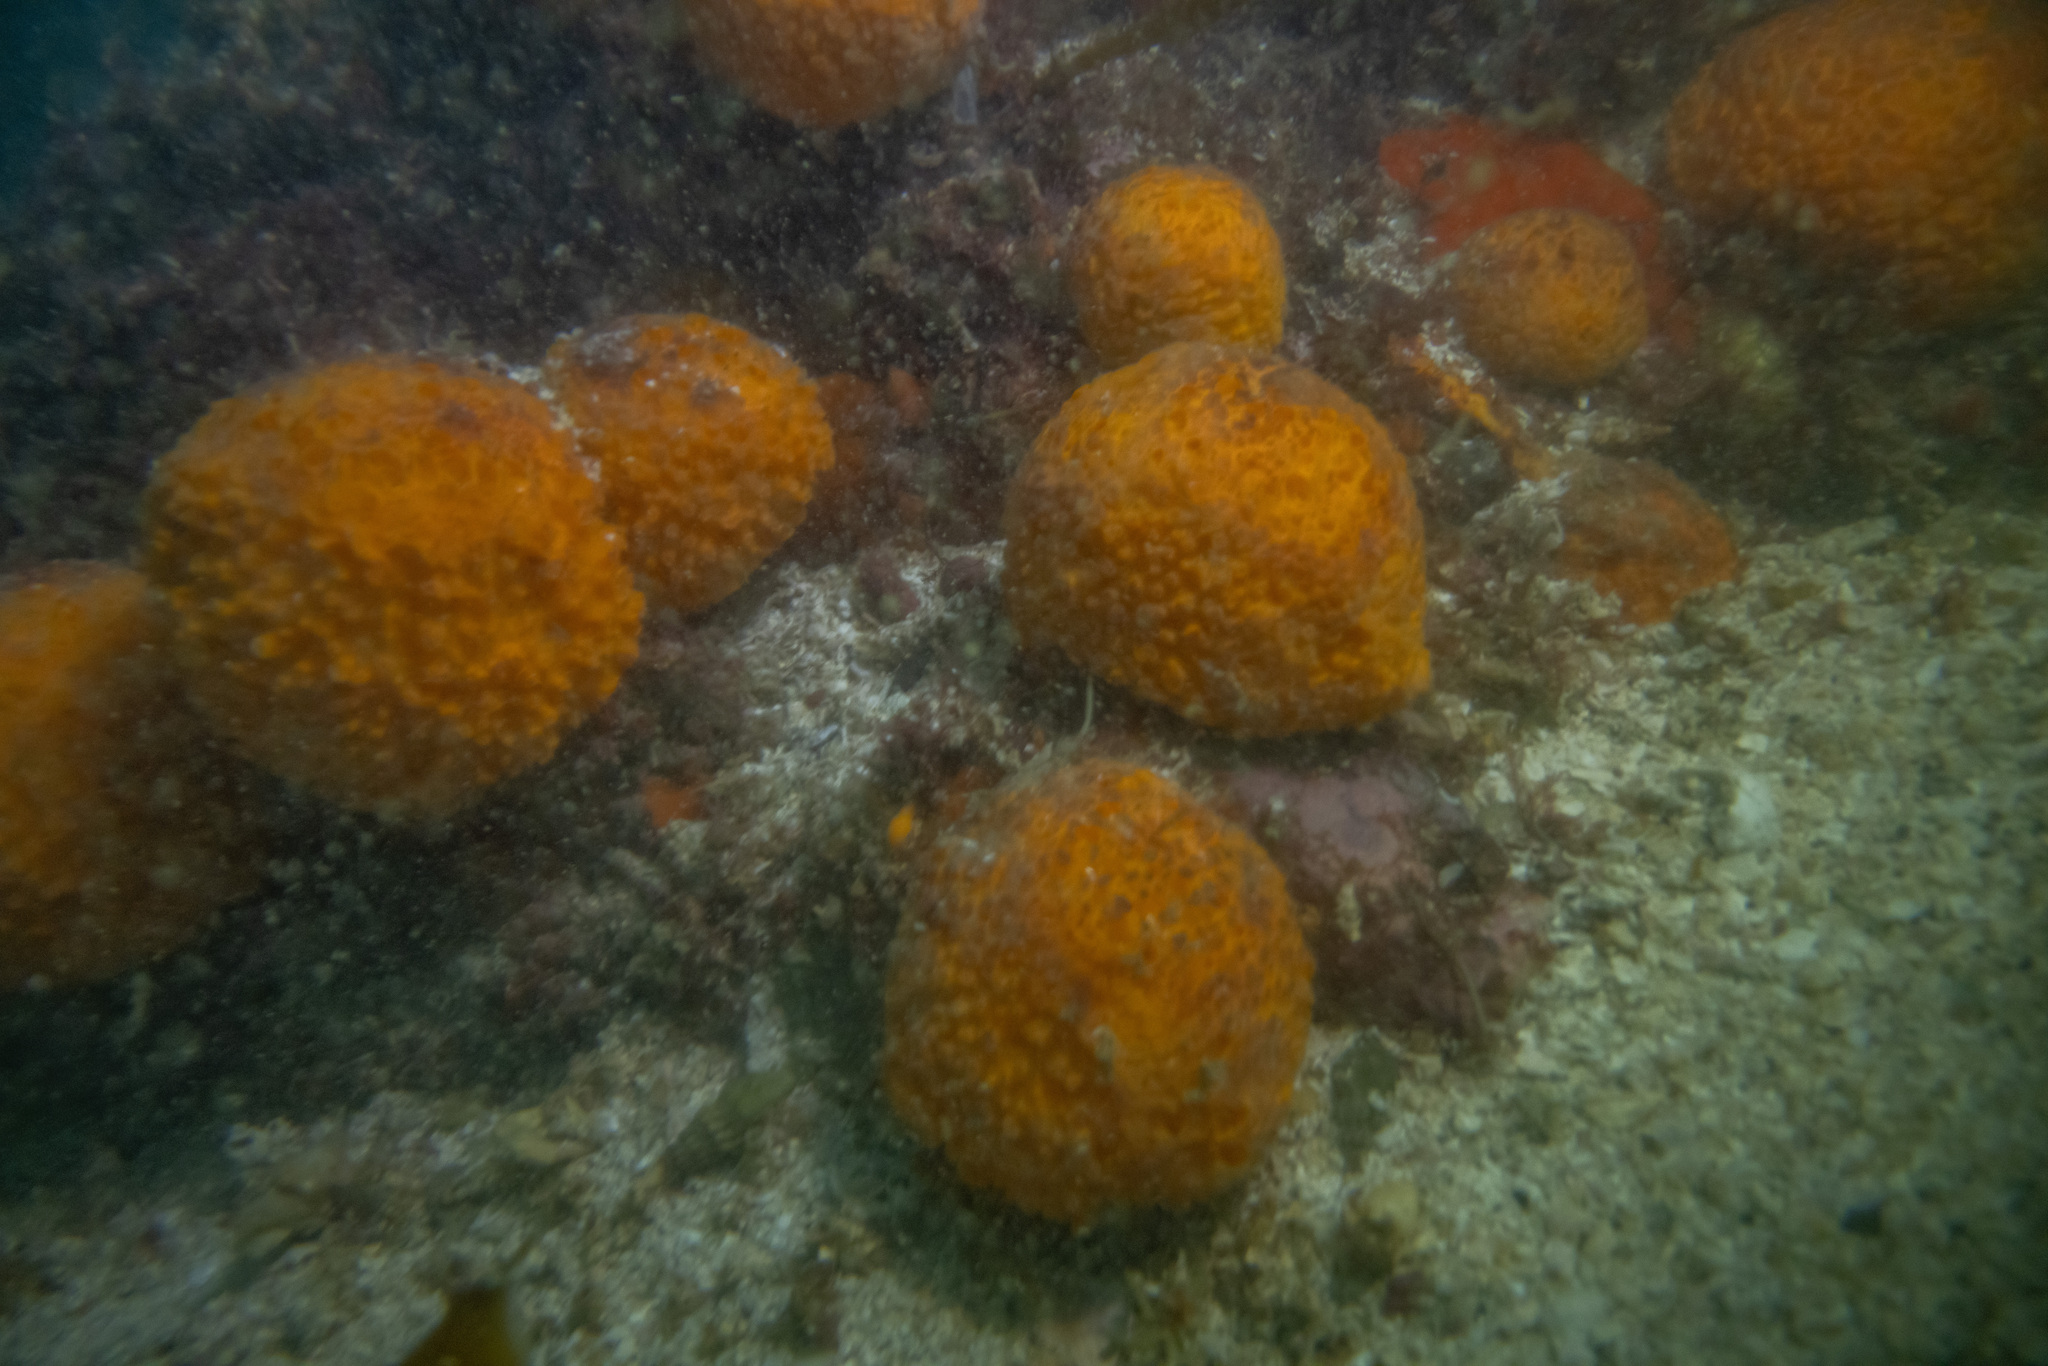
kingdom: Animalia
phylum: Porifera
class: Demospongiae
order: Tethyida
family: Tethyidae
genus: Tethya
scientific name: Tethya burtoni
